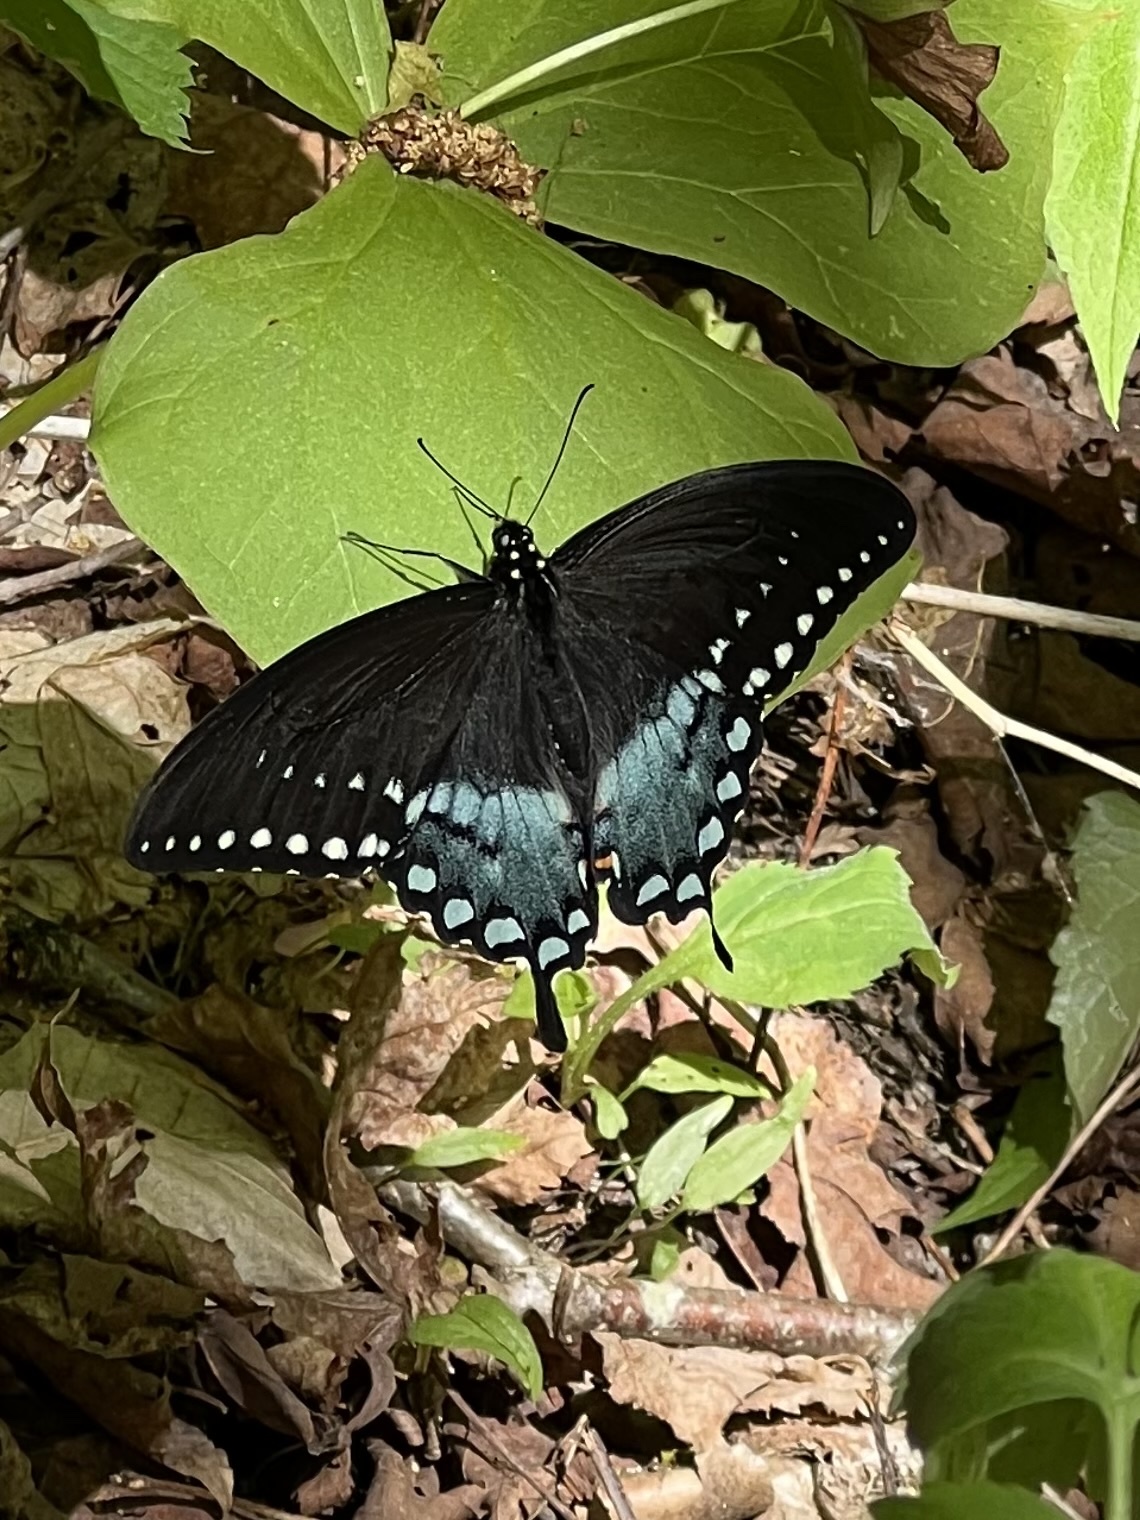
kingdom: Animalia
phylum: Arthropoda
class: Insecta
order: Lepidoptera
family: Papilionidae
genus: Papilio
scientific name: Papilio troilus
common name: Spicebush swallowtail
